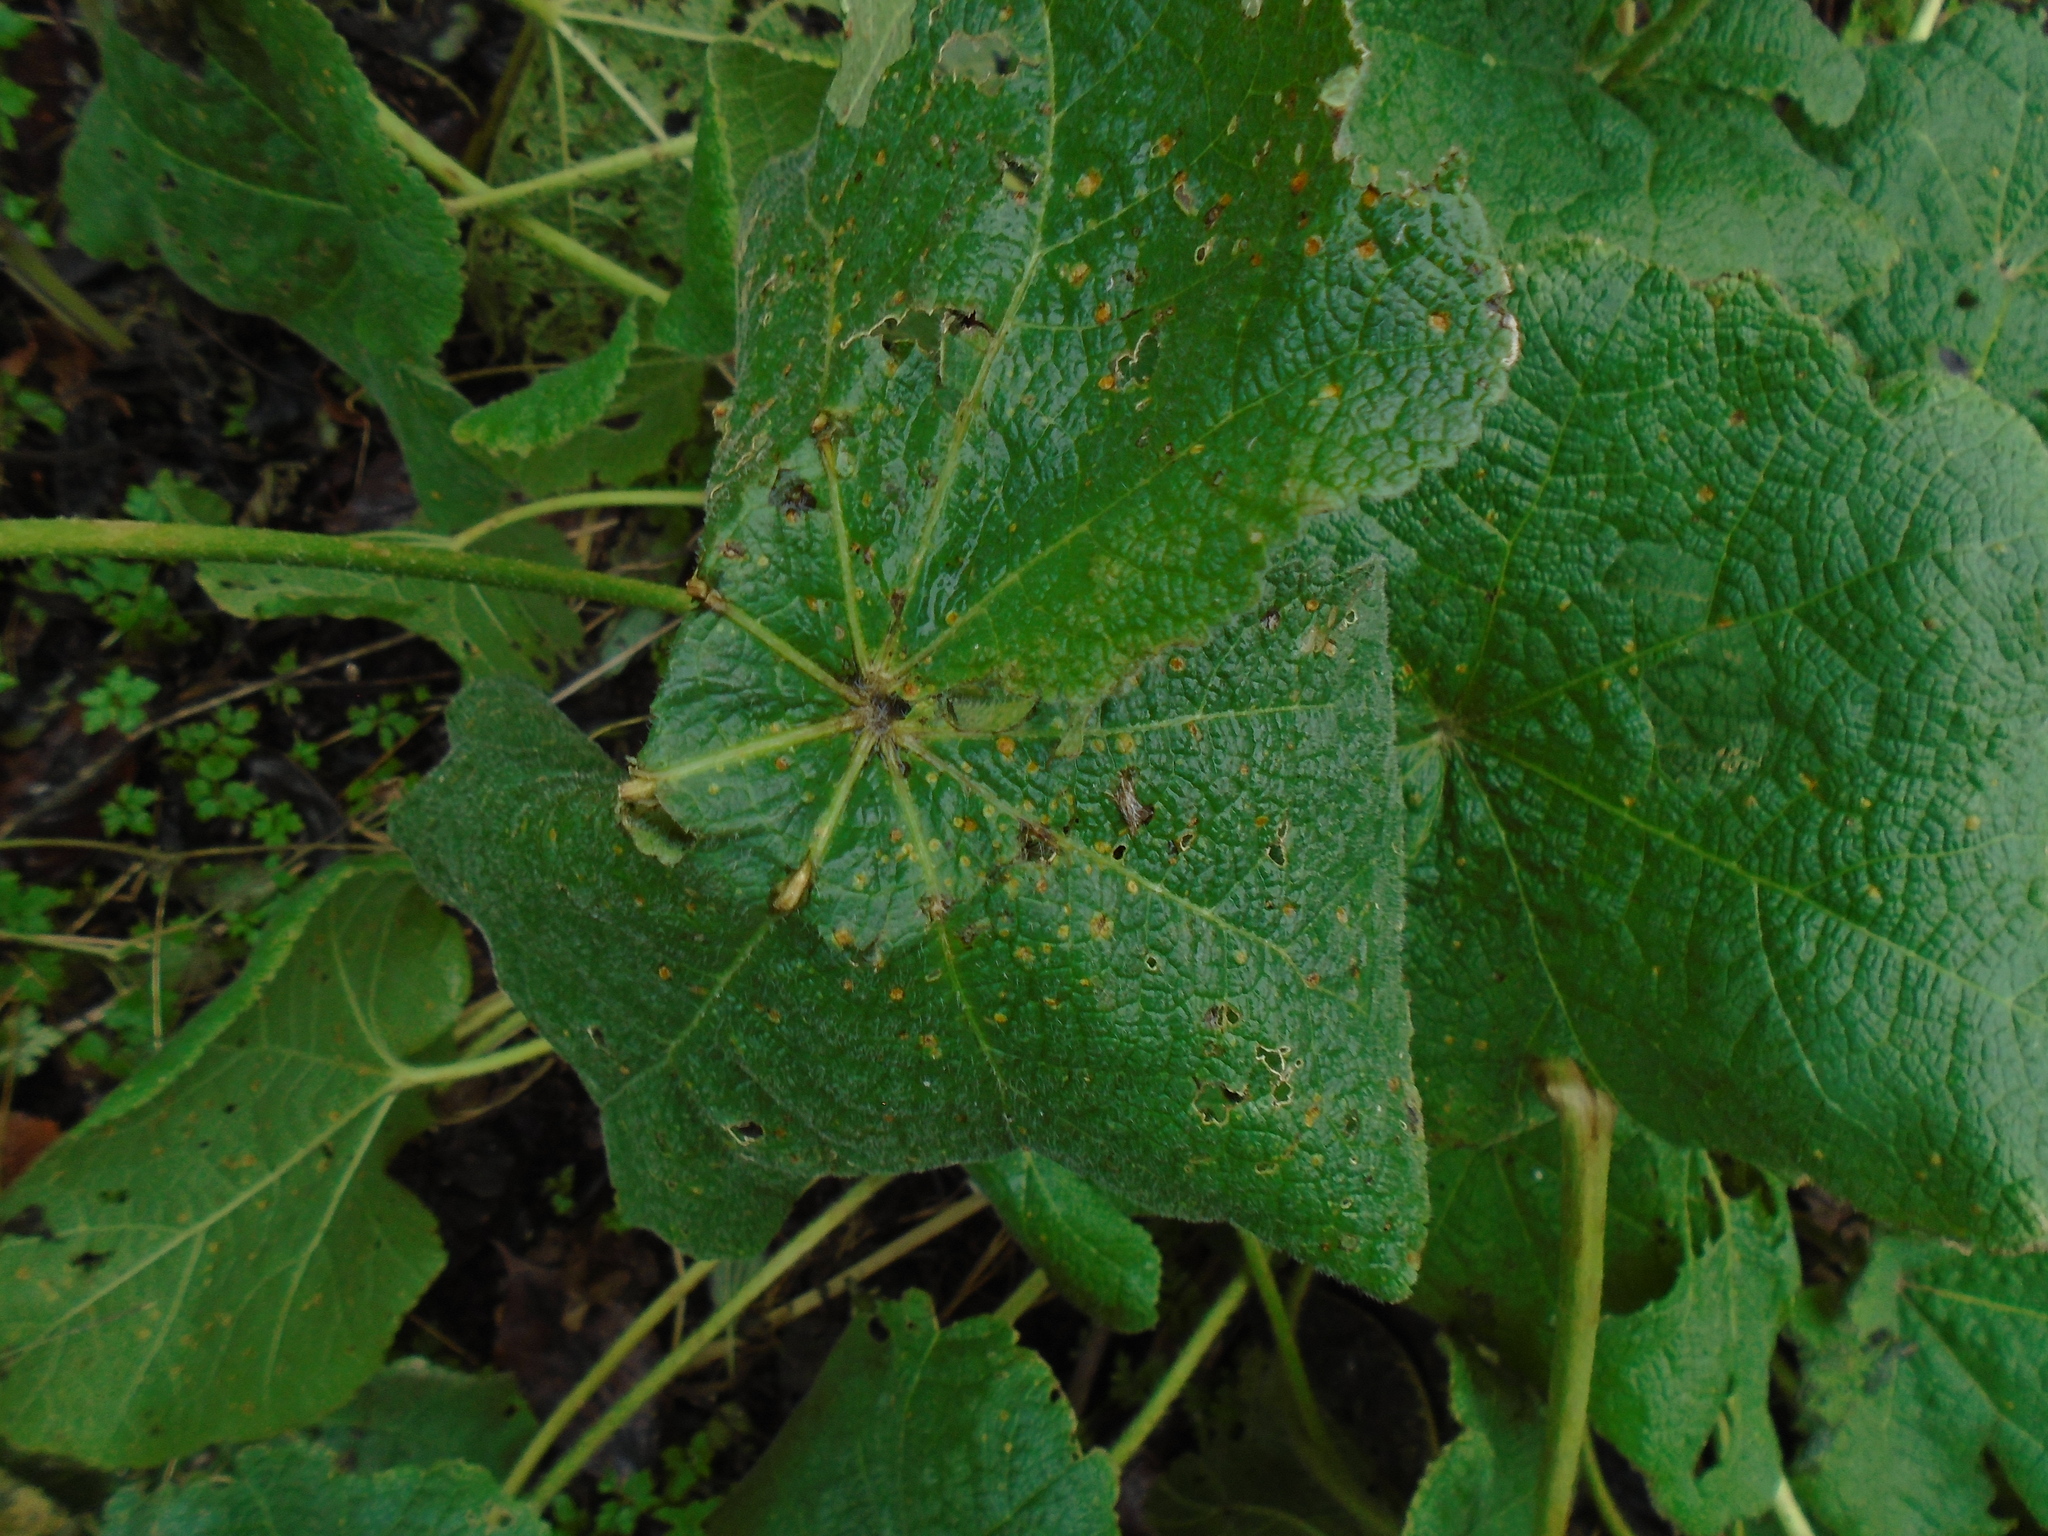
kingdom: Fungi
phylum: Basidiomycota
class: Pucciniomycetes
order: Pucciniales
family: Pucciniaceae
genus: Puccinia
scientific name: Puccinia malvacearum
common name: Hollyhock rust
